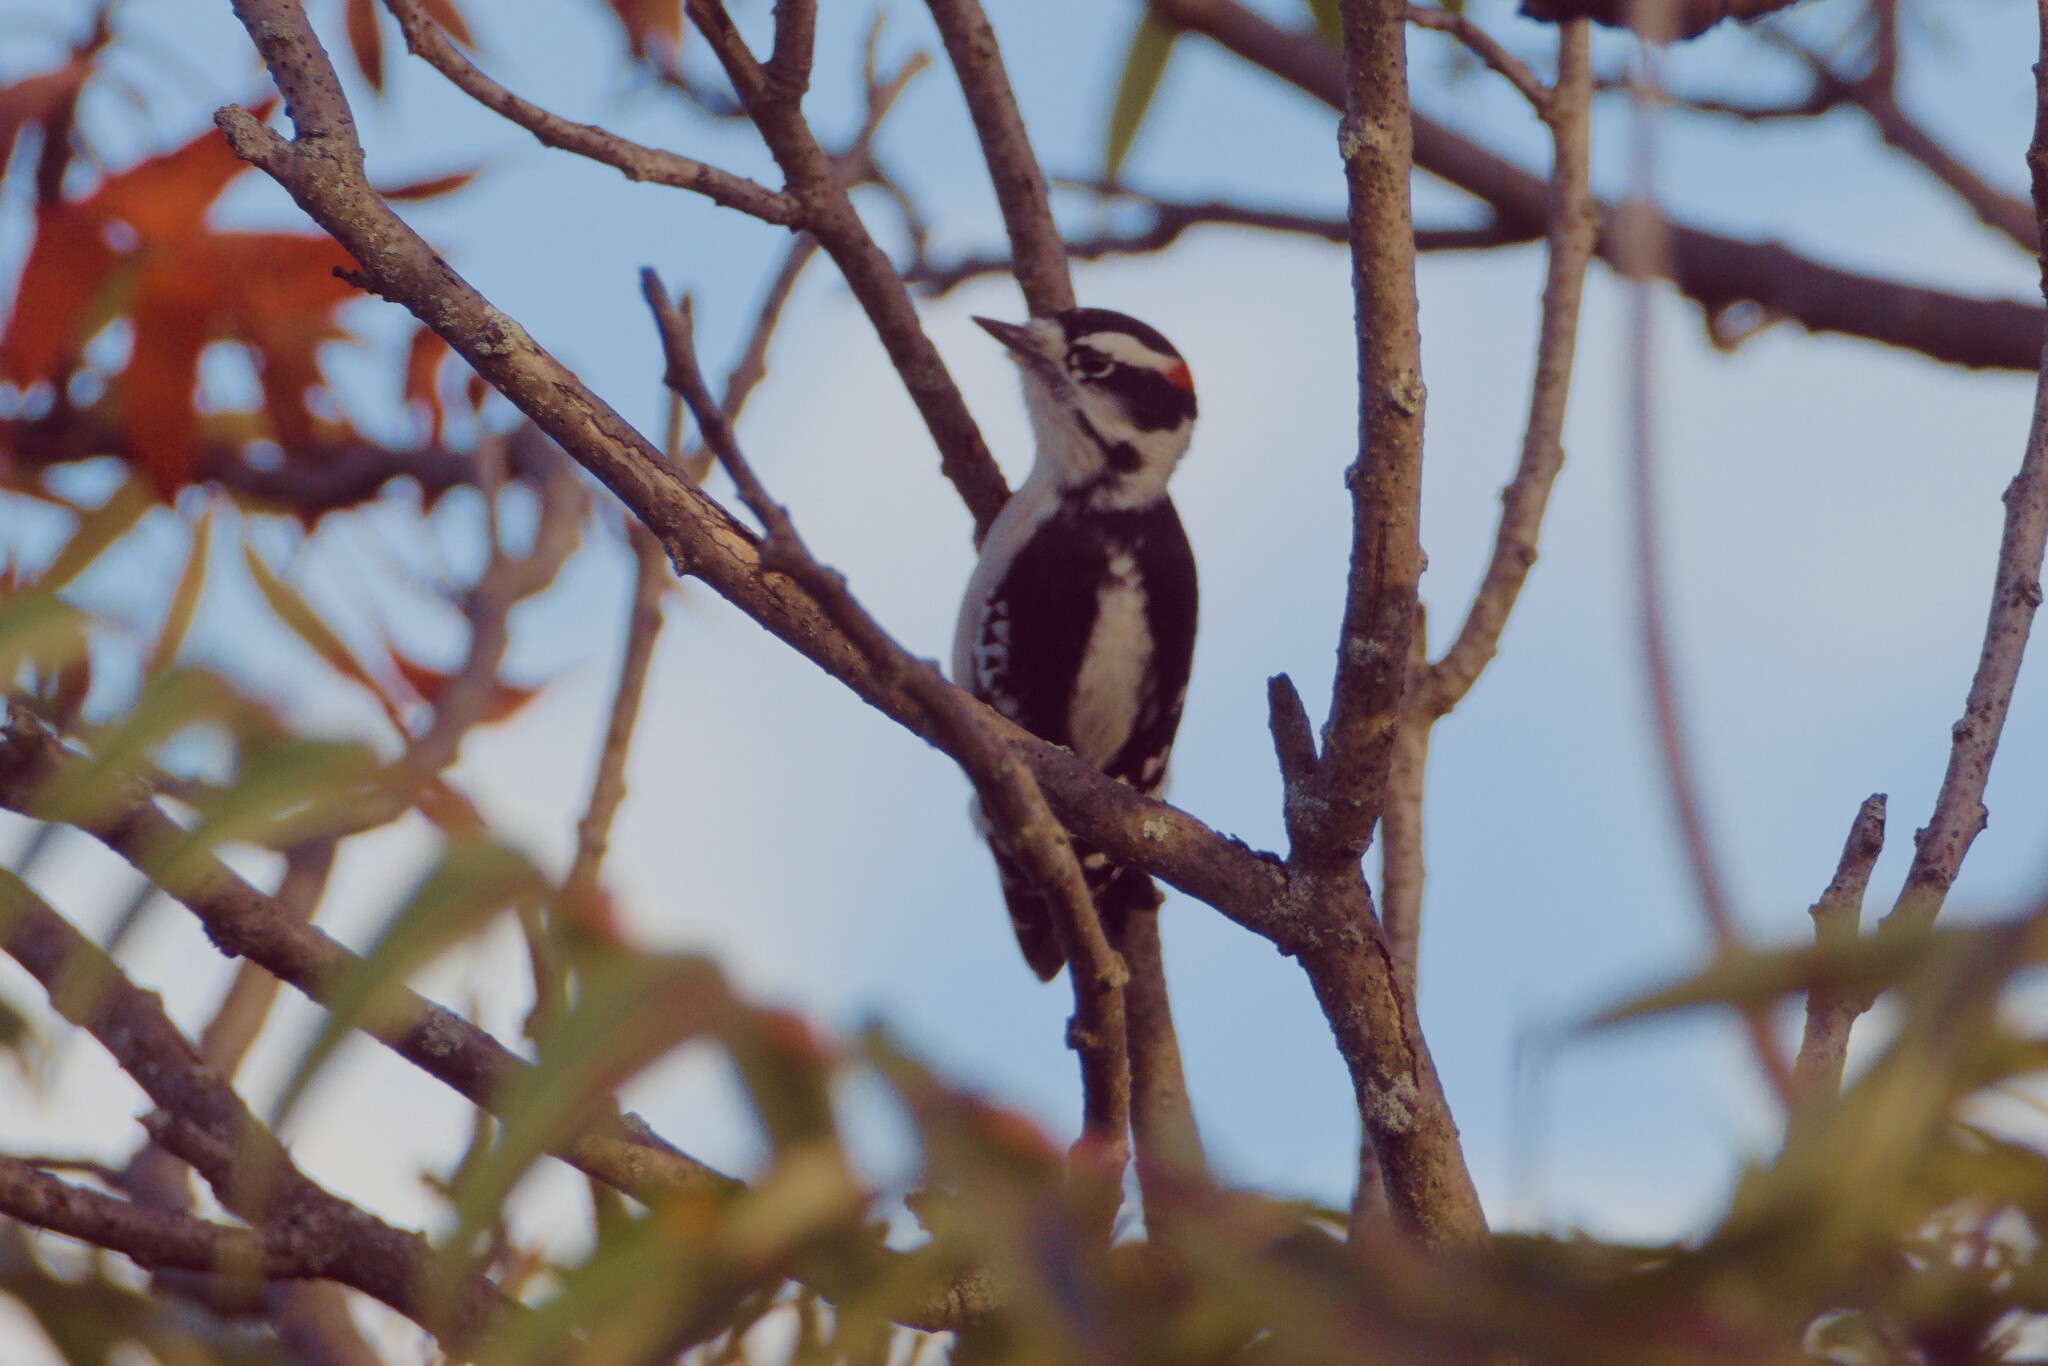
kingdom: Animalia
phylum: Chordata
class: Aves
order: Piciformes
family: Picidae
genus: Dryobates
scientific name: Dryobates pubescens
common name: Downy woodpecker
